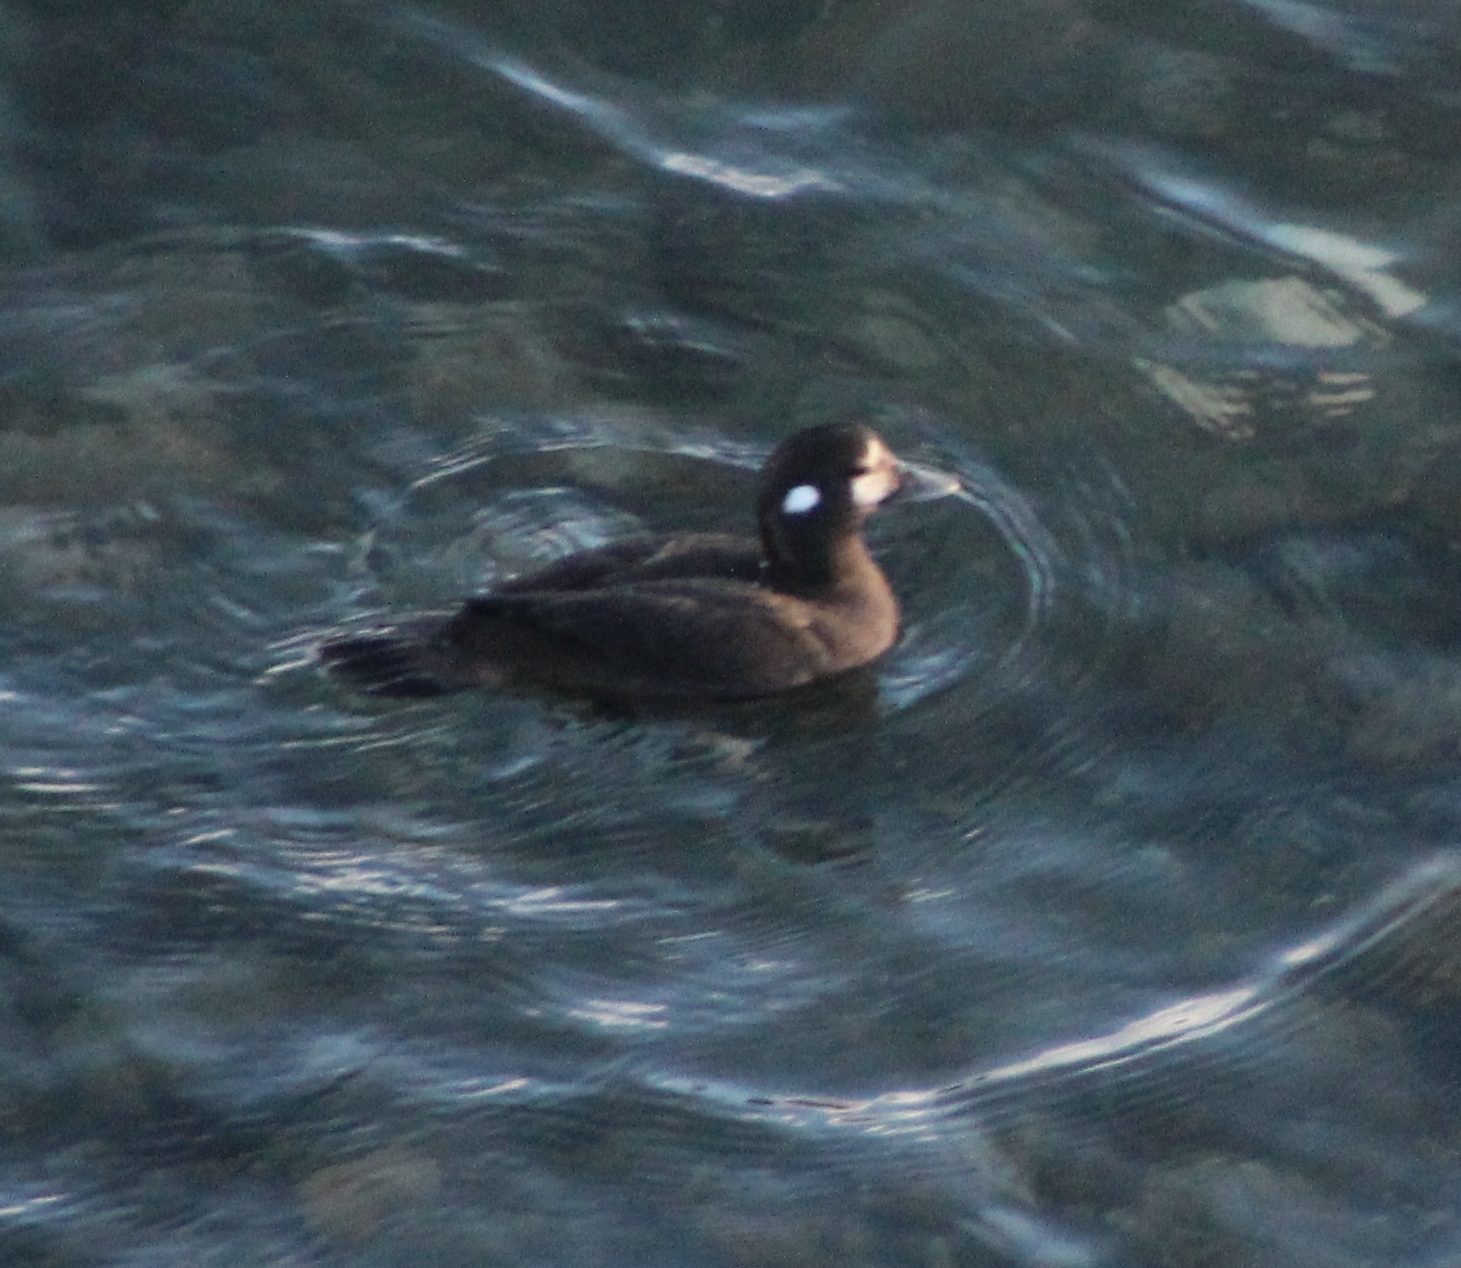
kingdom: Animalia
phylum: Chordata
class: Aves
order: Anseriformes
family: Anatidae
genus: Histrionicus
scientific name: Histrionicus histrionicus
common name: Harlequin duck
